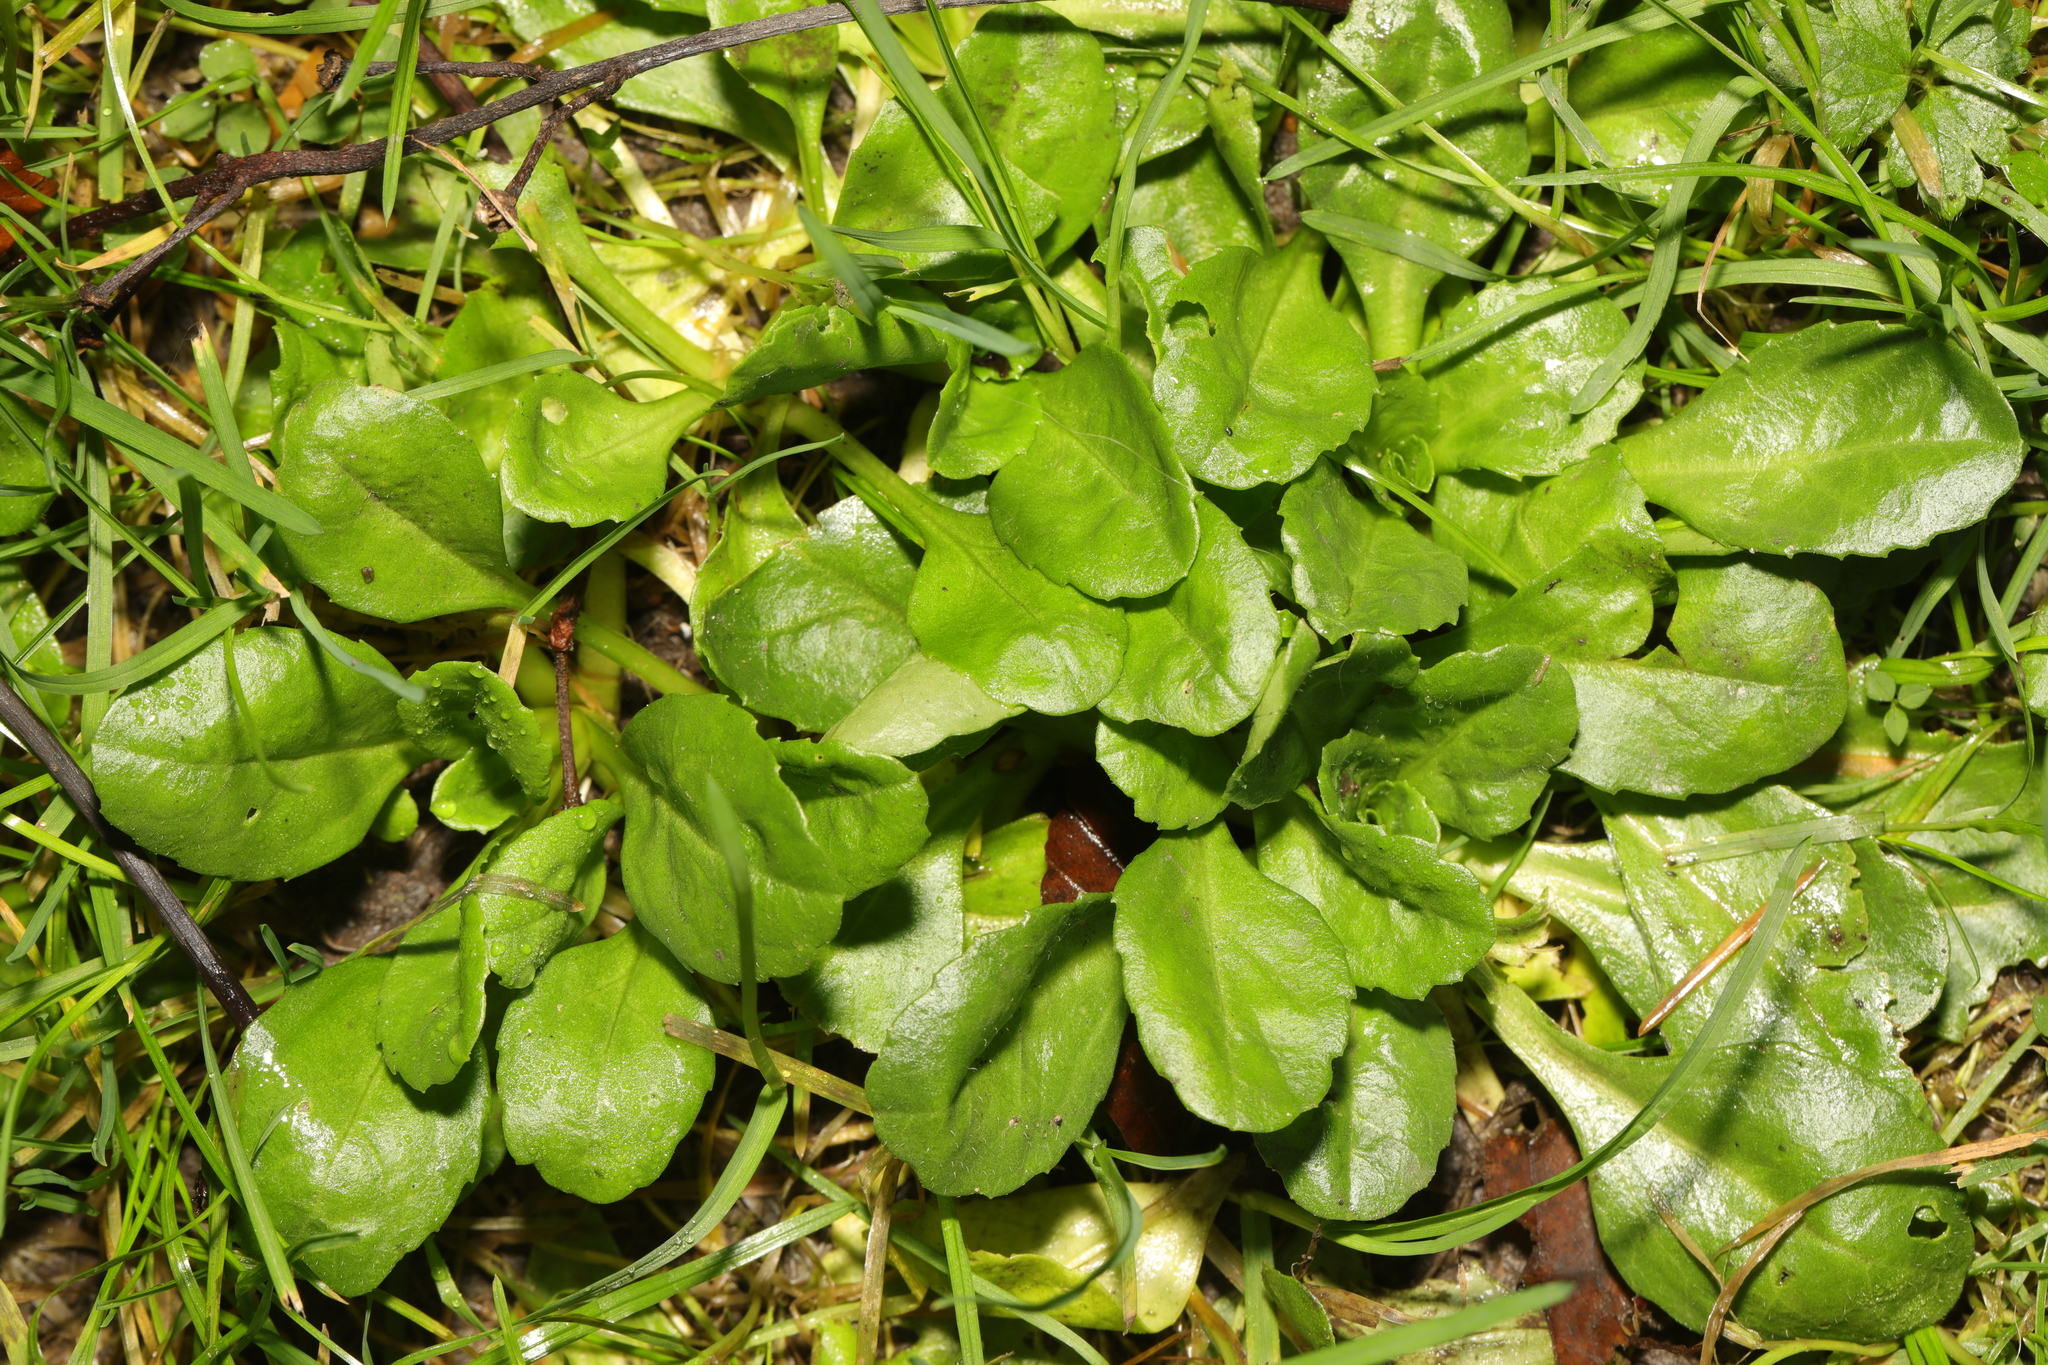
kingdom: Plantae
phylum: Tracheophyta
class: Magnoliopsida
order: Asterales
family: Asteraceae
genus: Bellis
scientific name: Bellis perennis
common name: Lawndaisy
